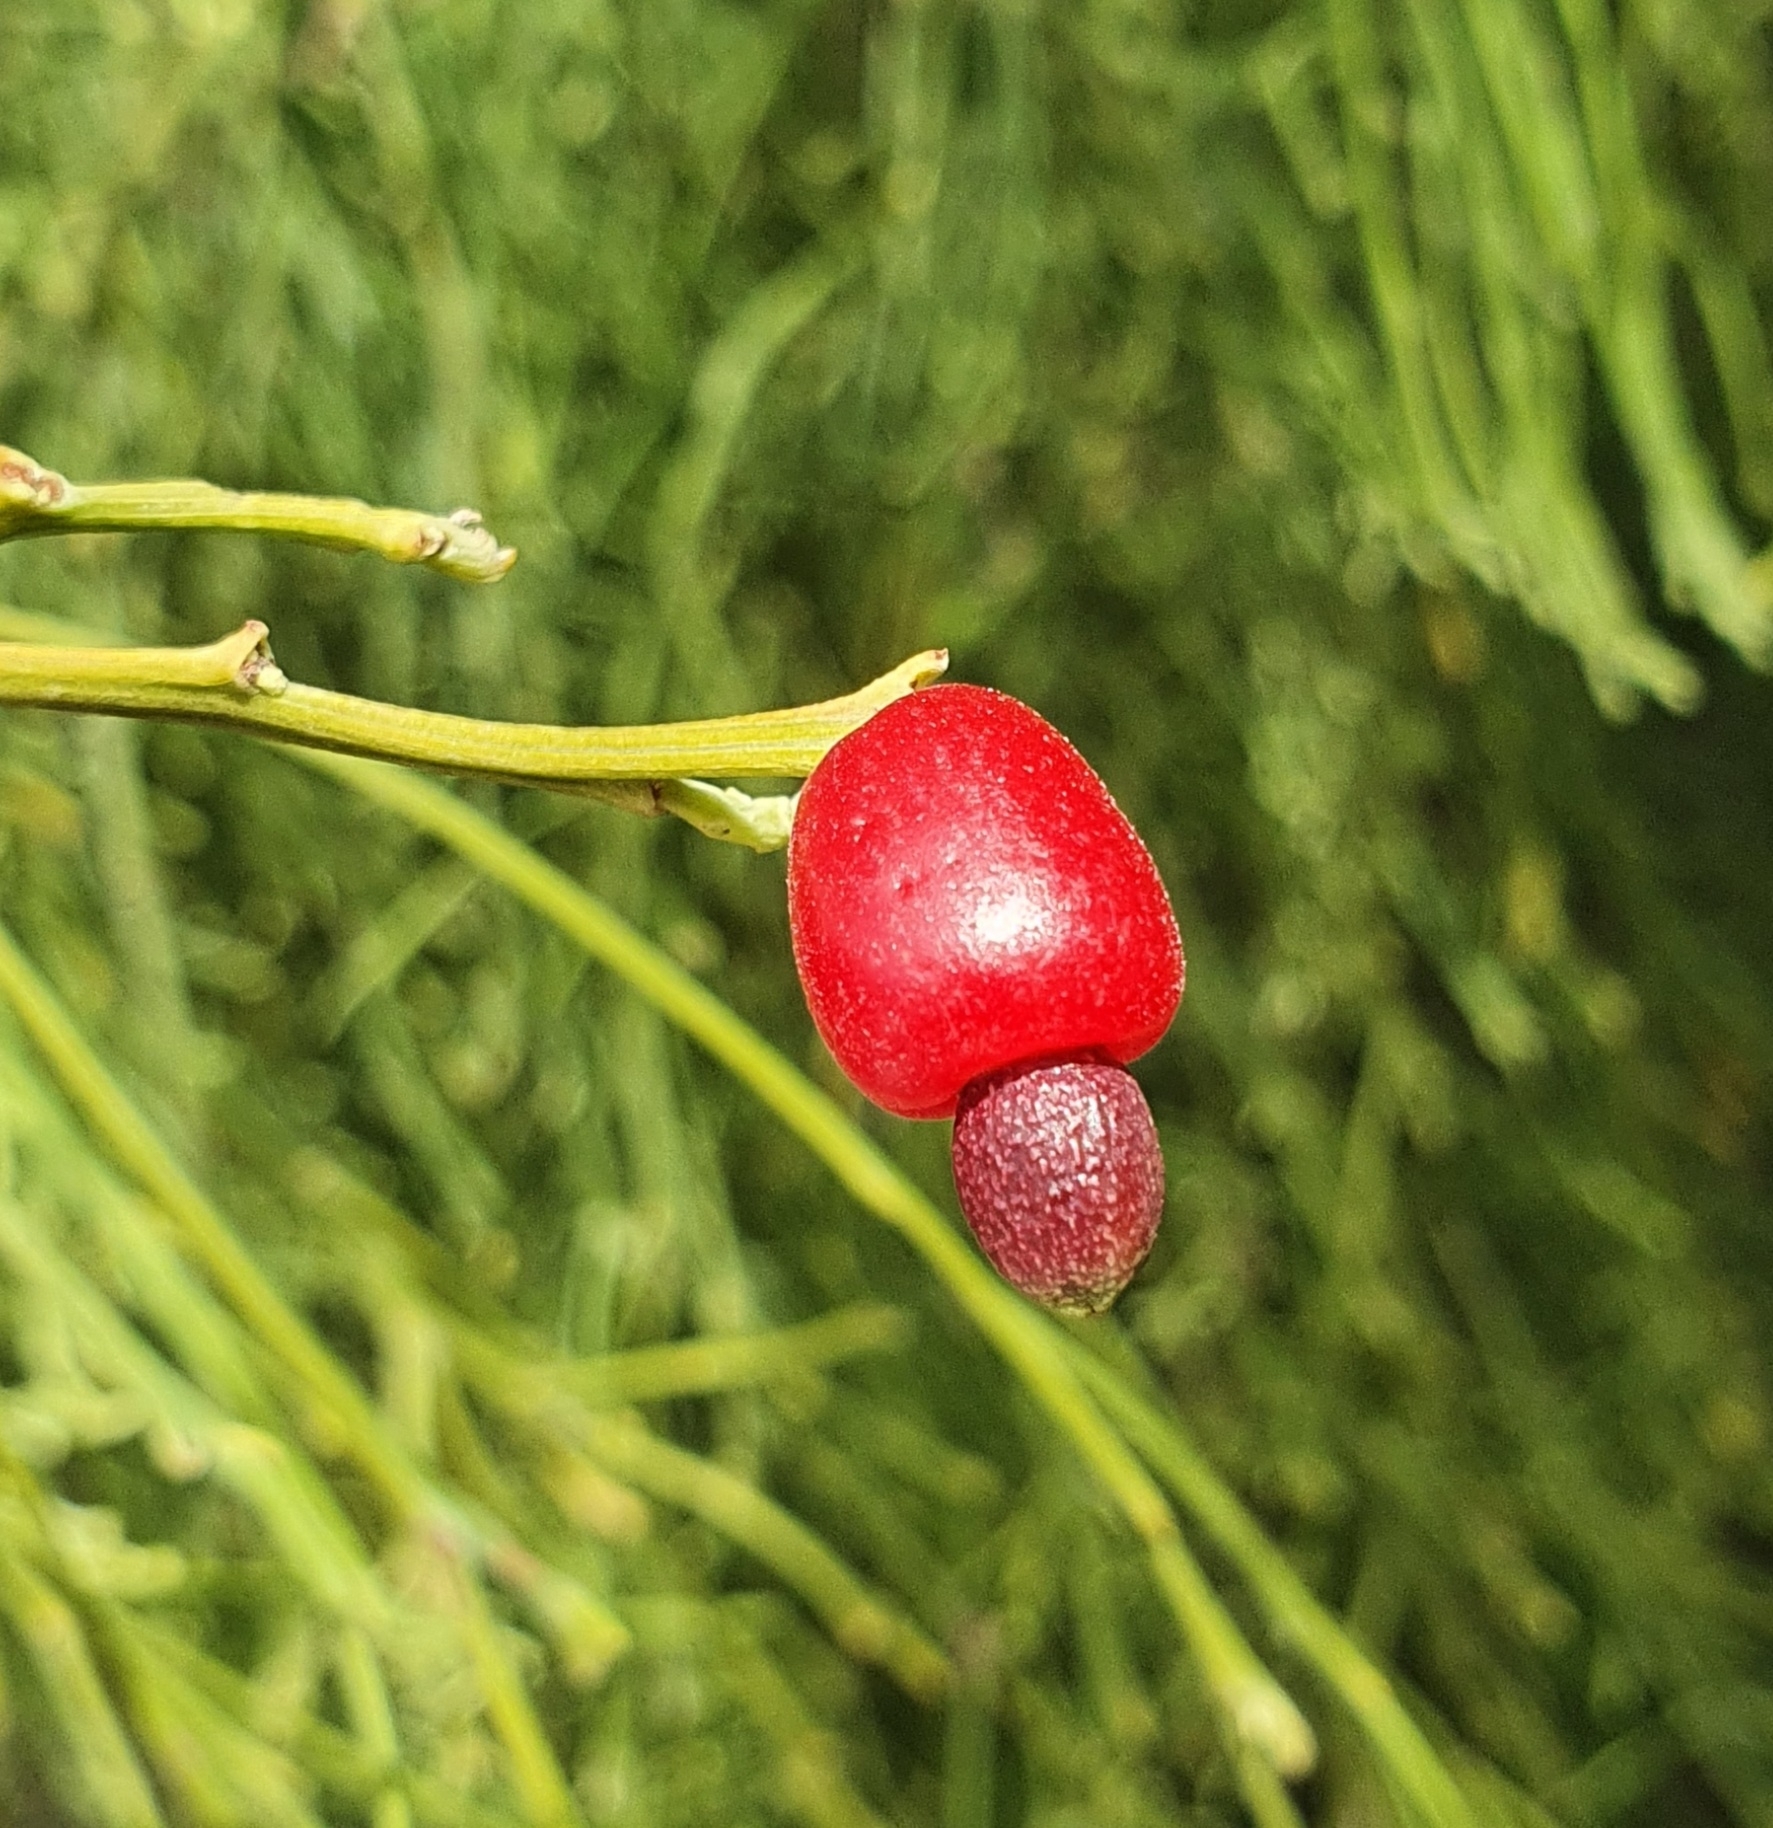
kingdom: Plantae
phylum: Tracheophyta
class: Magnoliopsida
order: Santalales
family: Santalaceae
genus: Exocarpos
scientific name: Exocarpos cupressiformis
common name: Cherry ballart
